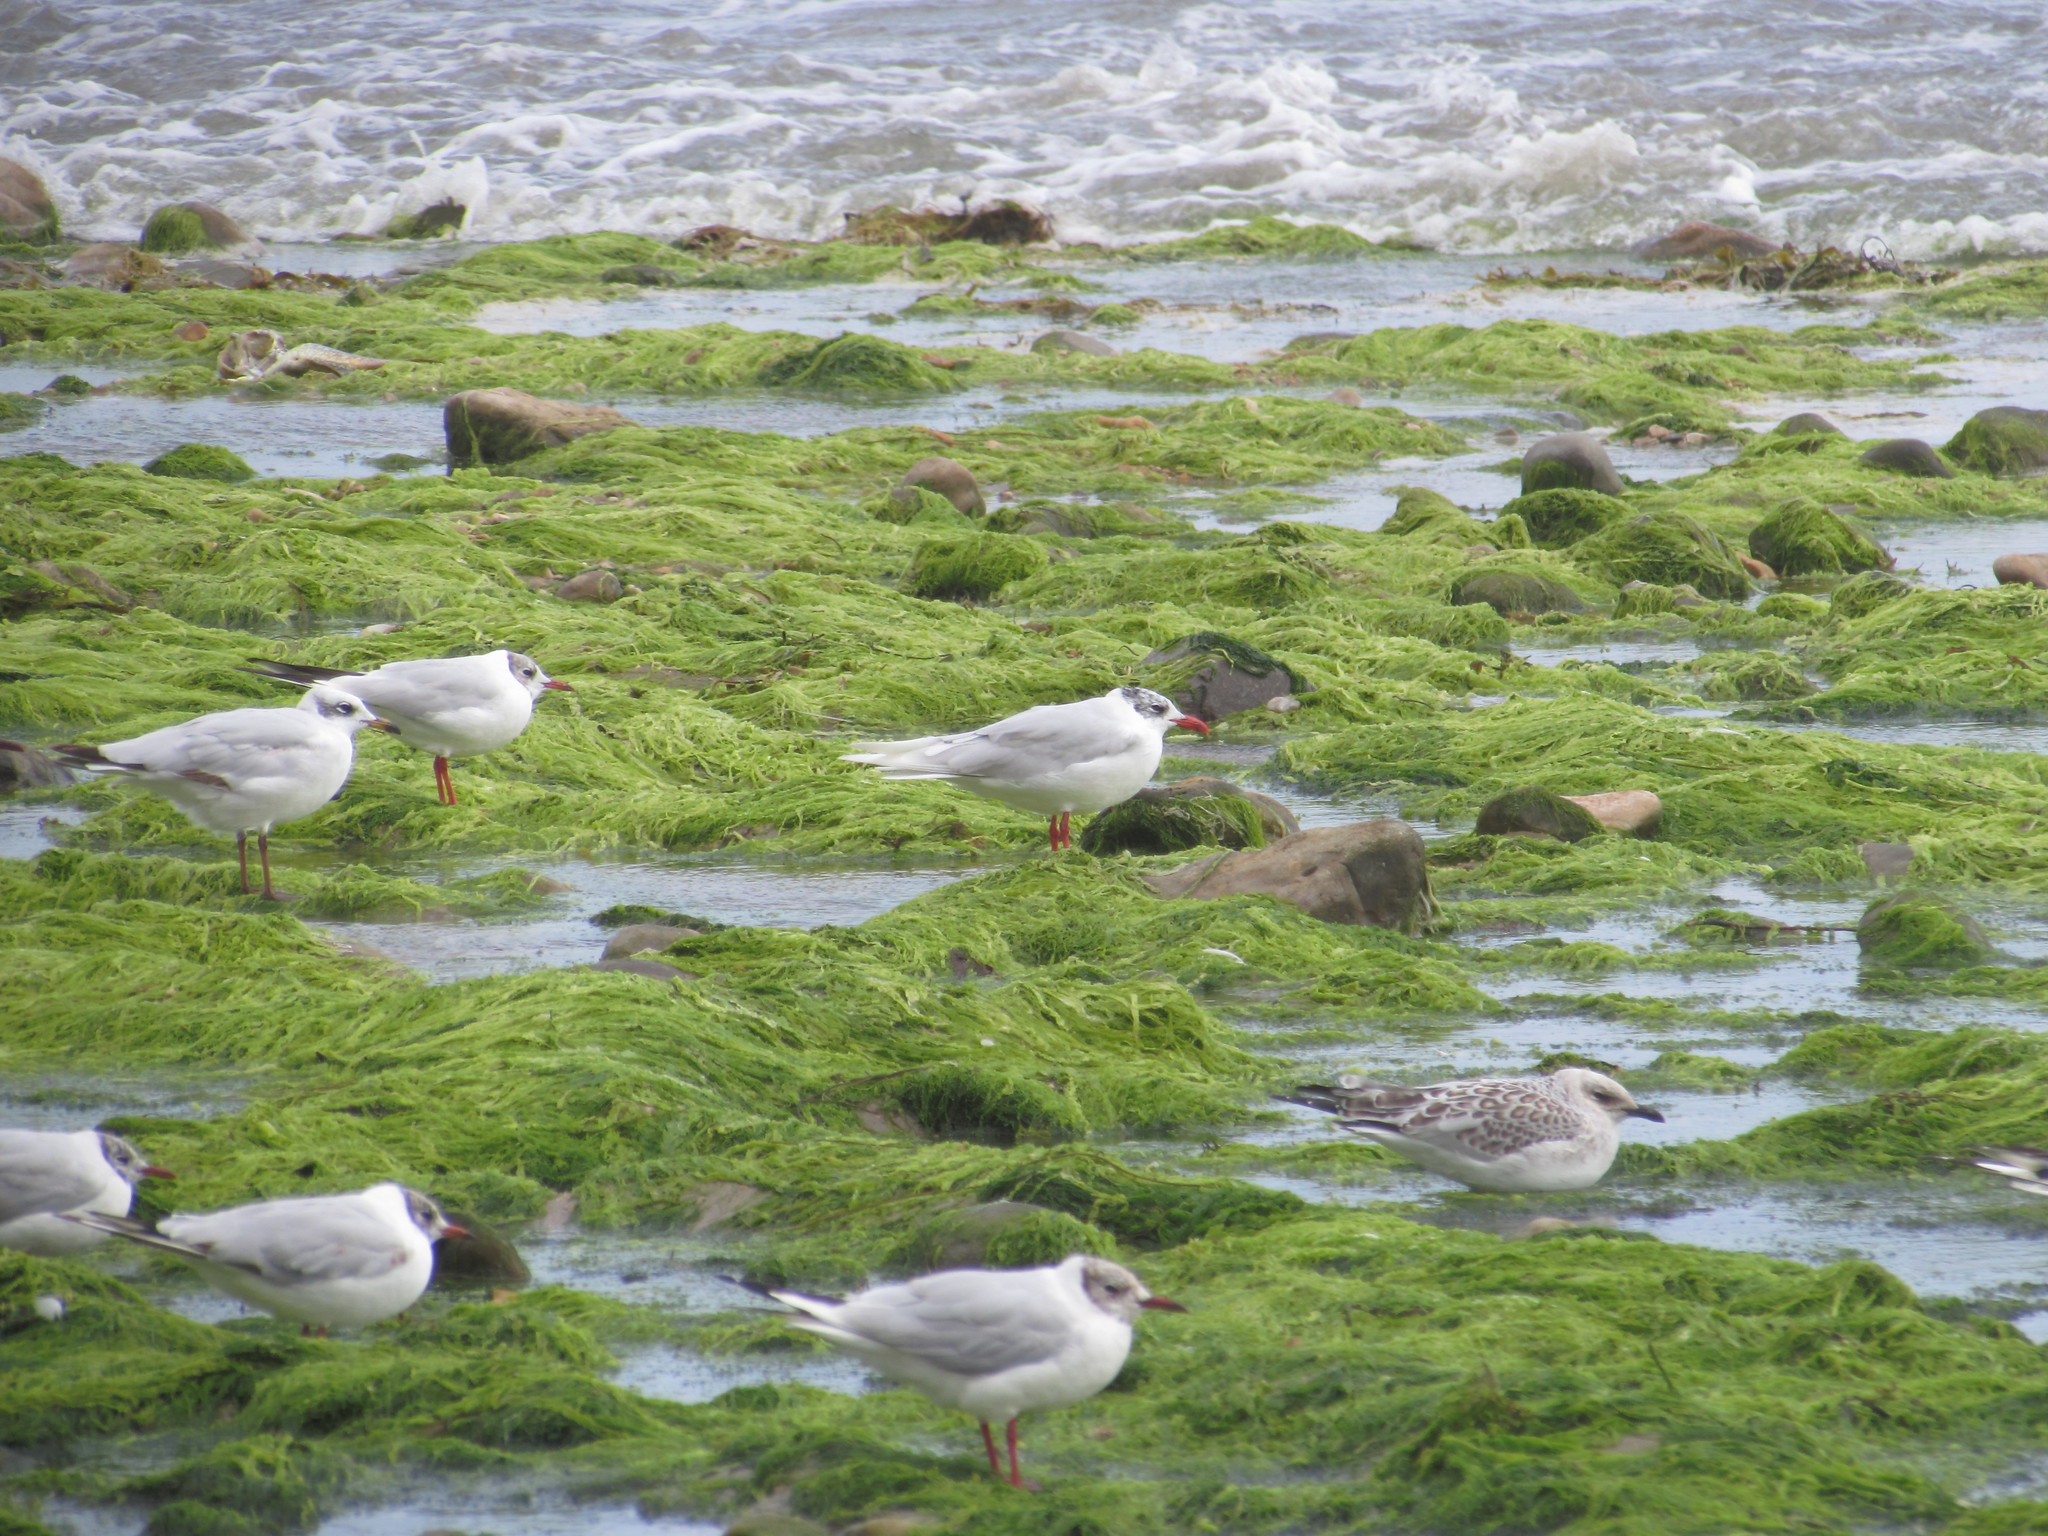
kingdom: Animalia
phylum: Chordata
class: Aves
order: Charadriiformes
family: Laridae
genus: Ichthyaetus
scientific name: Ichthyaetus melanocephalus
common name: Mediterranean gull
